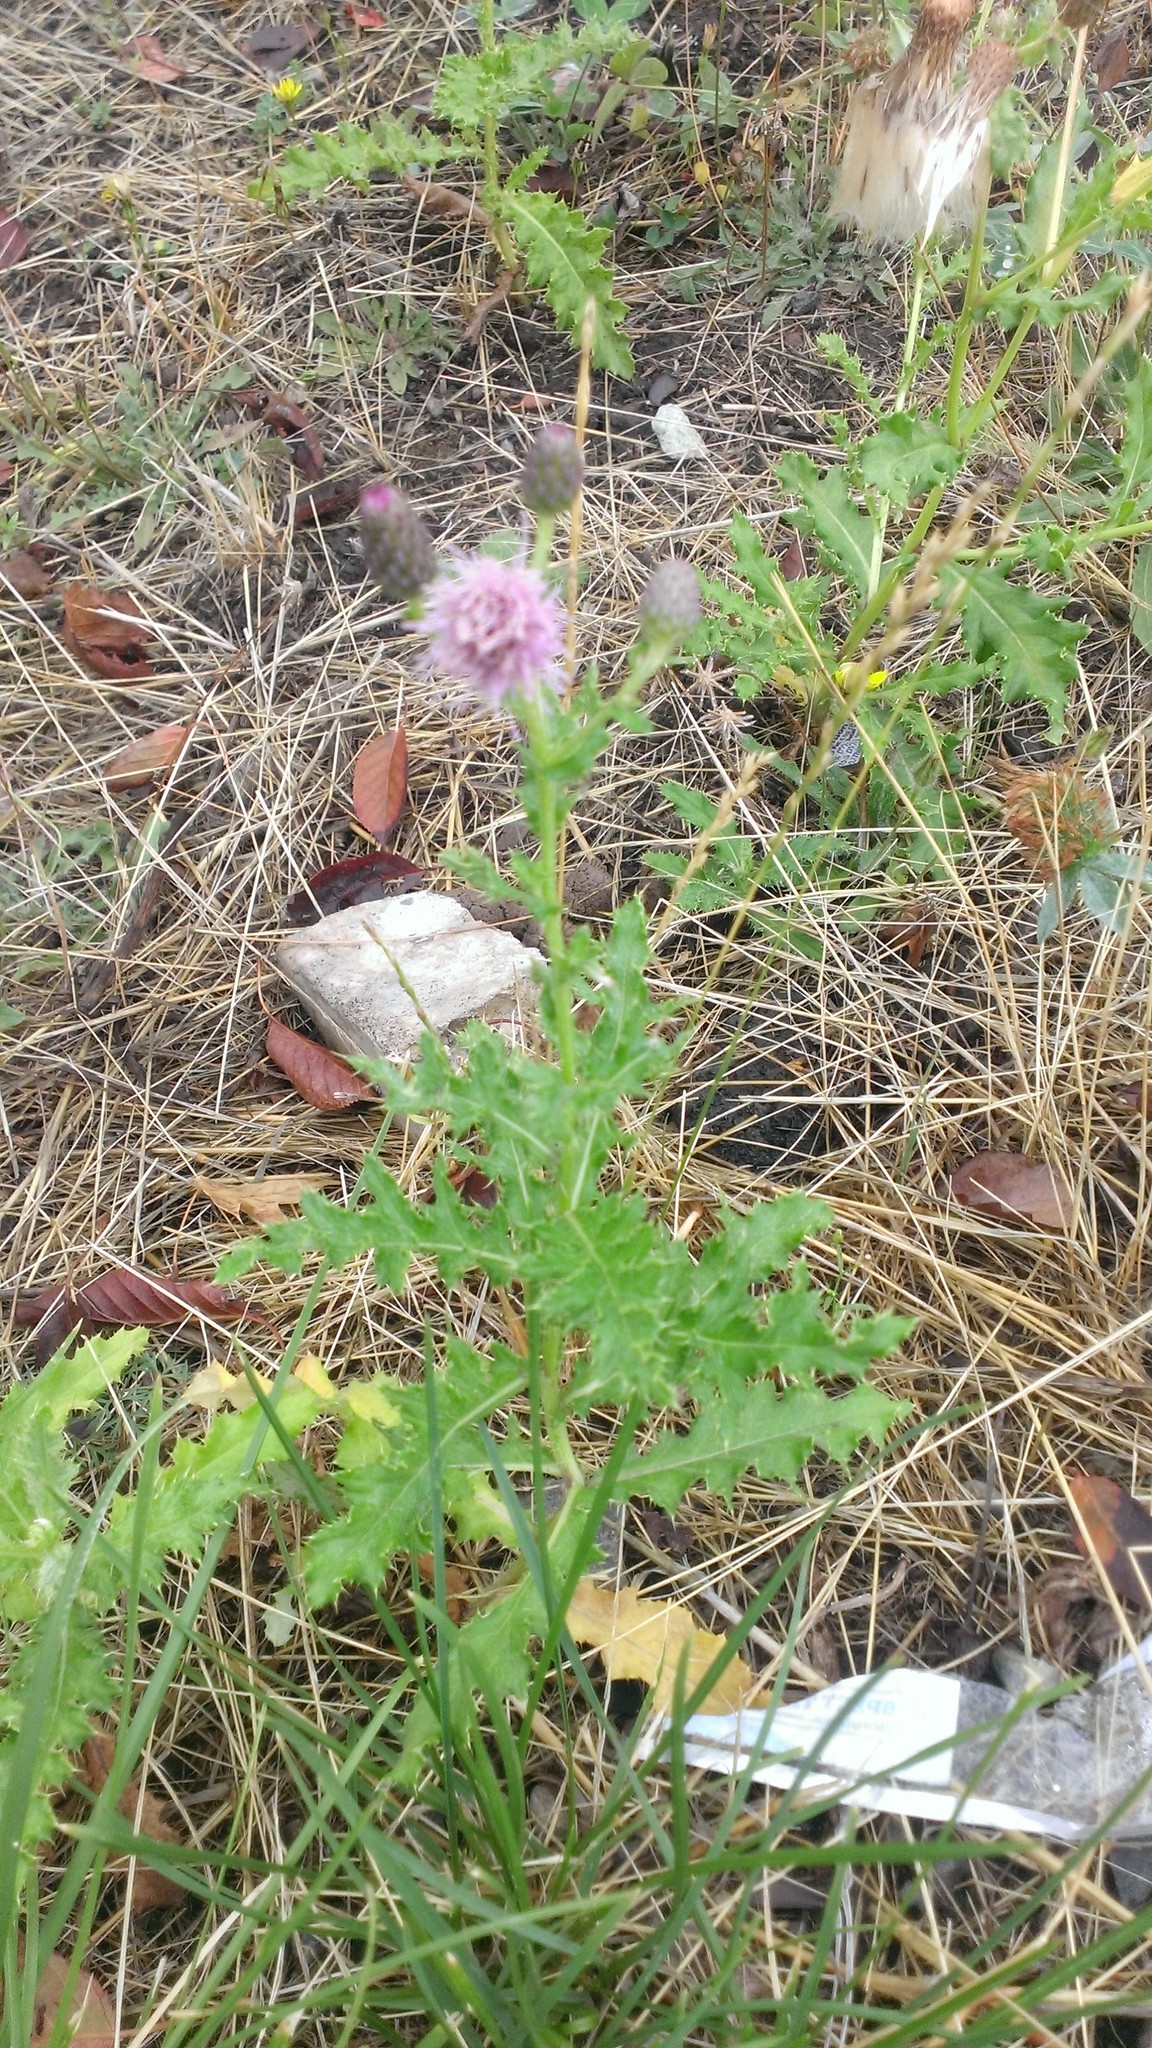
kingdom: Plantae
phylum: Tracheophyta
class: Magnoliopsida
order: Asterales
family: Asteraceae
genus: Cirsium
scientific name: Cirsium arvense
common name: Creeping thistle
